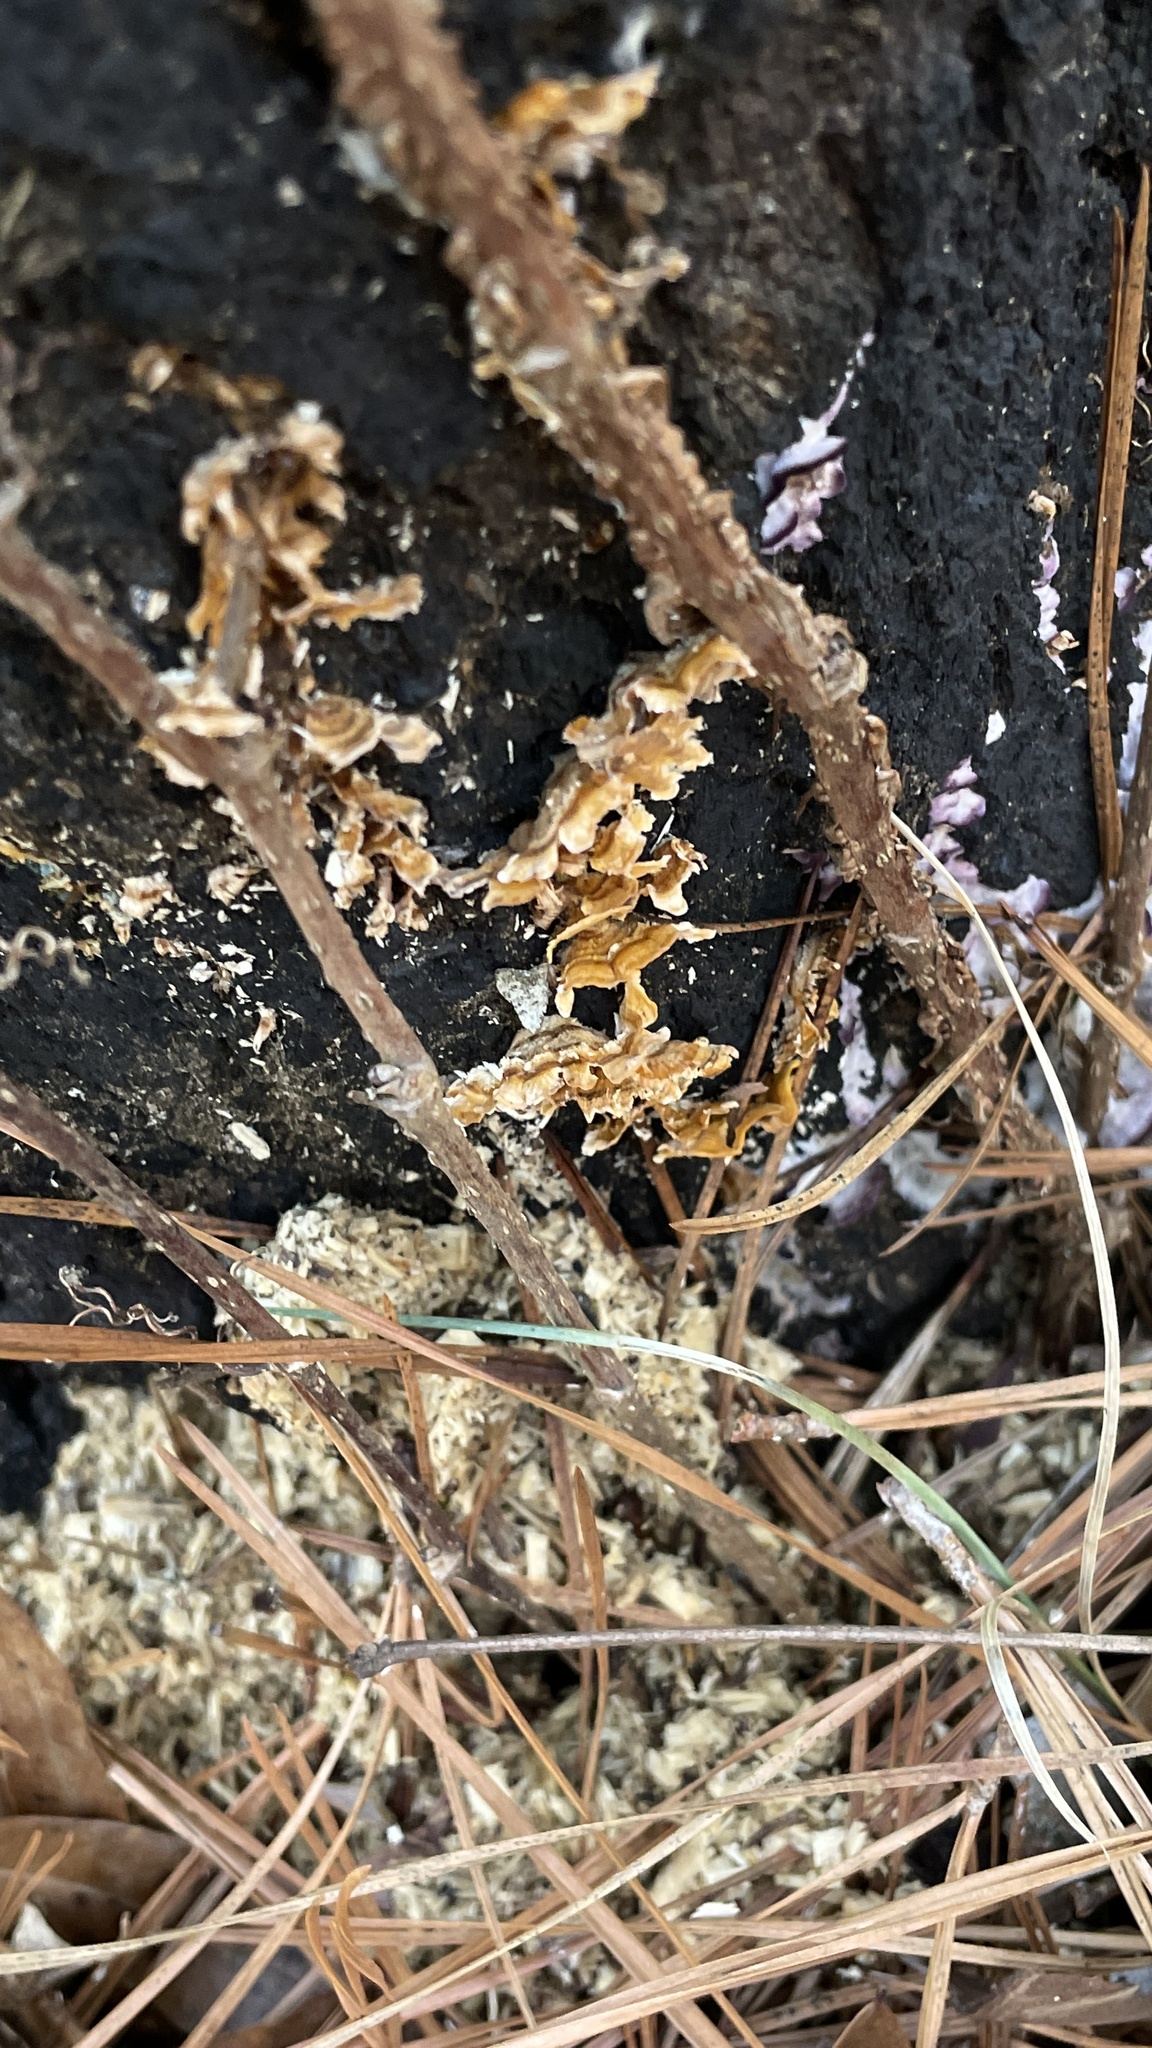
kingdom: Fungi
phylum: Basidiomycota
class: Agaricomycetes
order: Russulales
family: Stereaceae
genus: Stereum
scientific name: Stereum complicatum
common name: Crowded parchment
